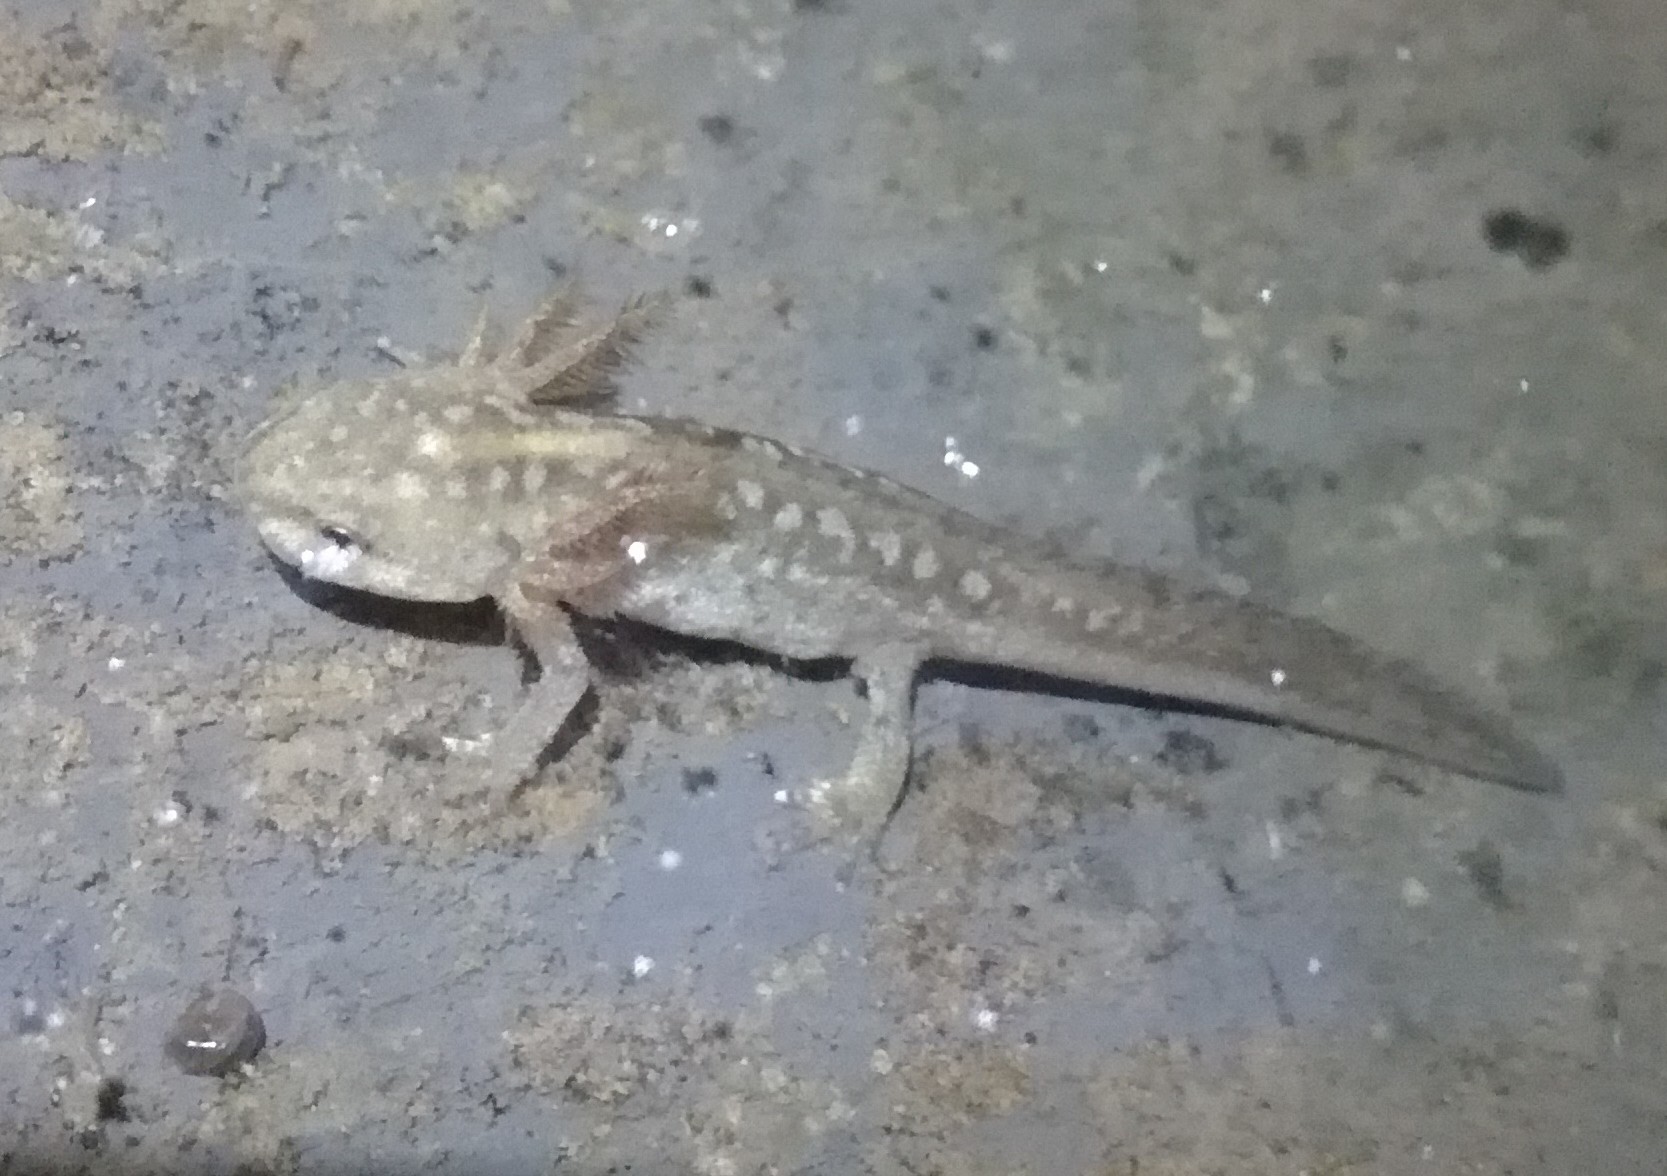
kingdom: Animalia
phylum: Chordata
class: Amphibia
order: Caudata
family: Salamandridae
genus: Ichthyosaura
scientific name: Ichthyosaura alpestris
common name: Alpine newt
